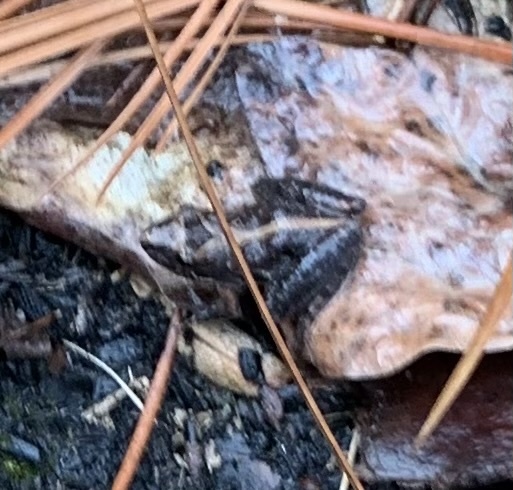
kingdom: Animalia
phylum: Chordata
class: Amphibia
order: Anura
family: Hylidae
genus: Acris
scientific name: Acris gryllus
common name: Southern cricket frog
